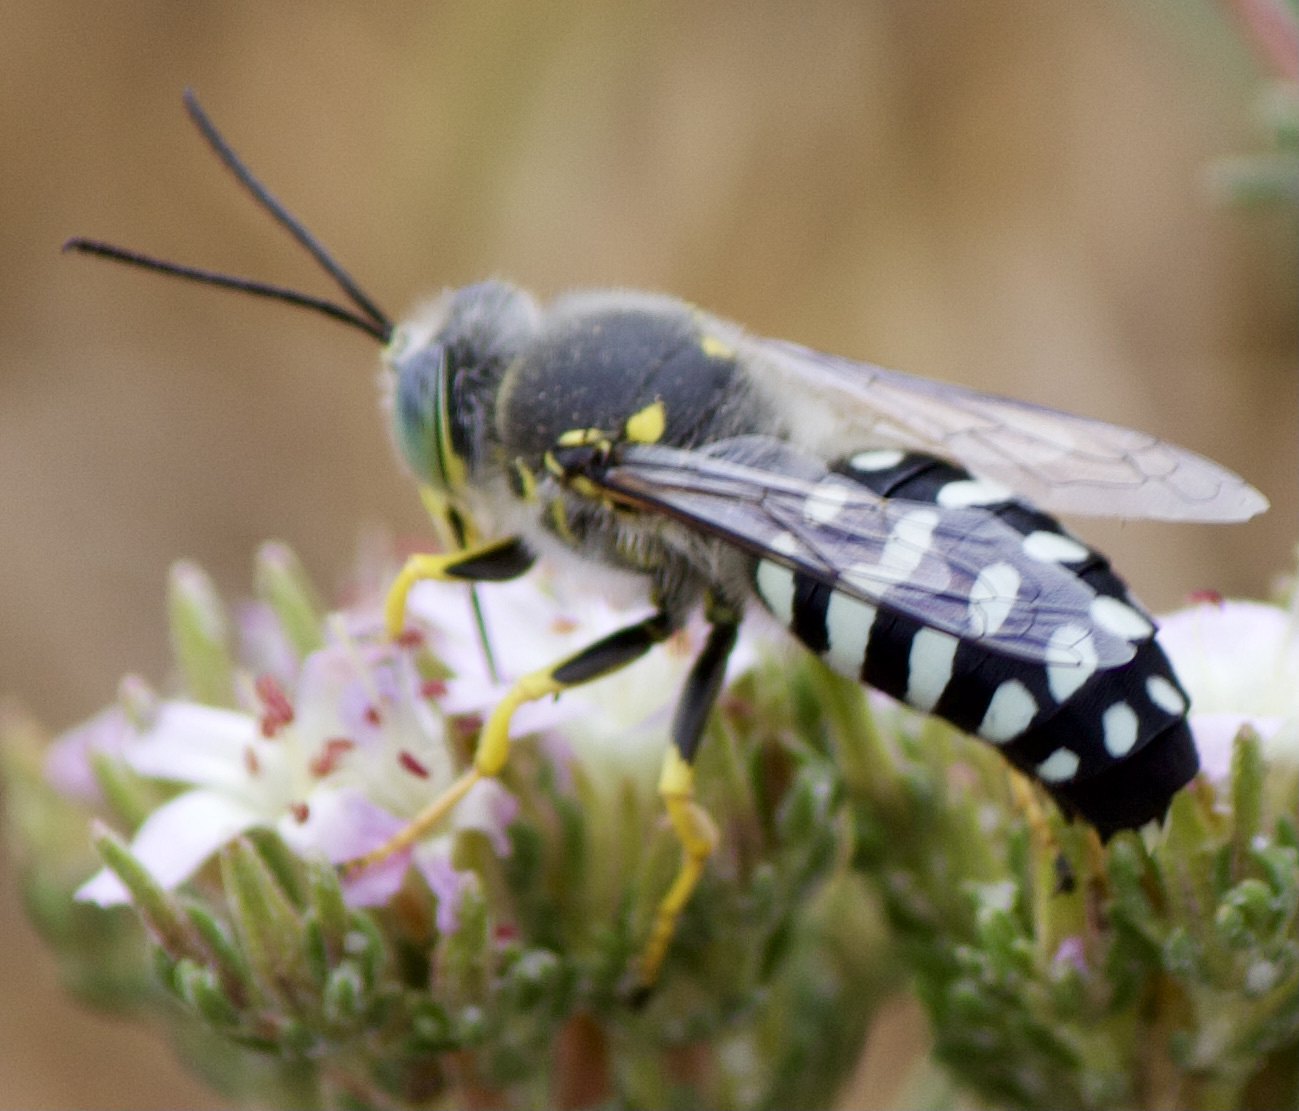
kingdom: Animalia
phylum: Arthropoda
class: Insecta
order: Hymenoptera
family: Crabronidae
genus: Zyzzyx
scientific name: Zyzzyx chilensis
